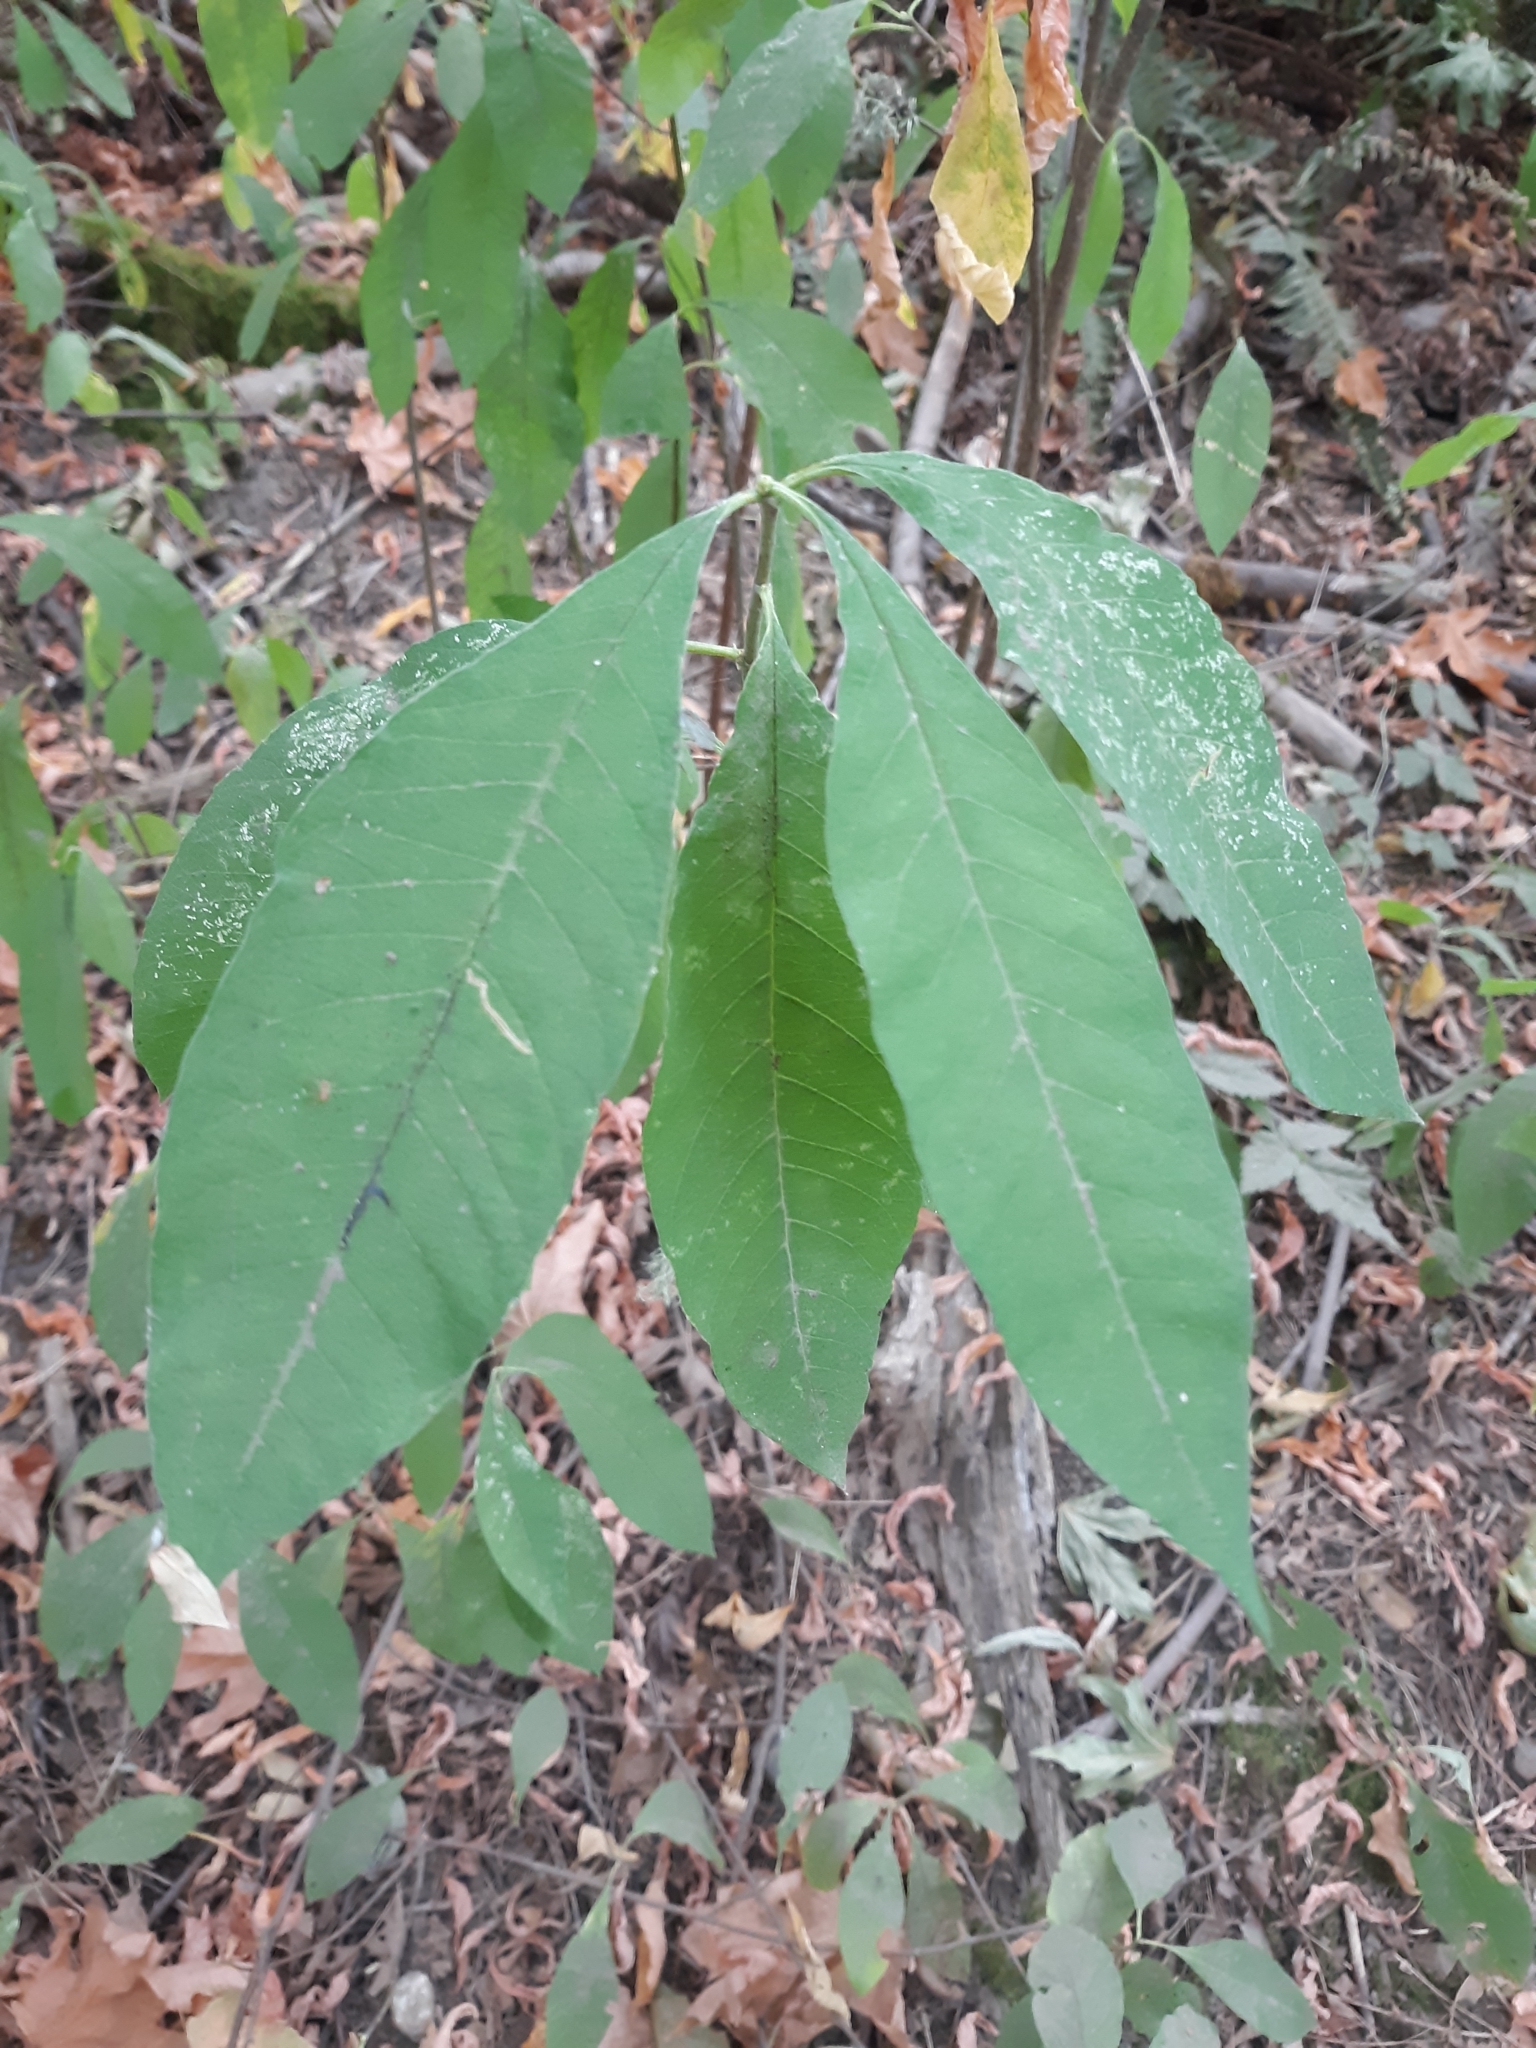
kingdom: Plantae
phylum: Tracheophyta
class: Magnoliopsida
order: Rosales
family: Rosaceae
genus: Oemleria
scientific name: Oemleria cerasiformis
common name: Osoberry
